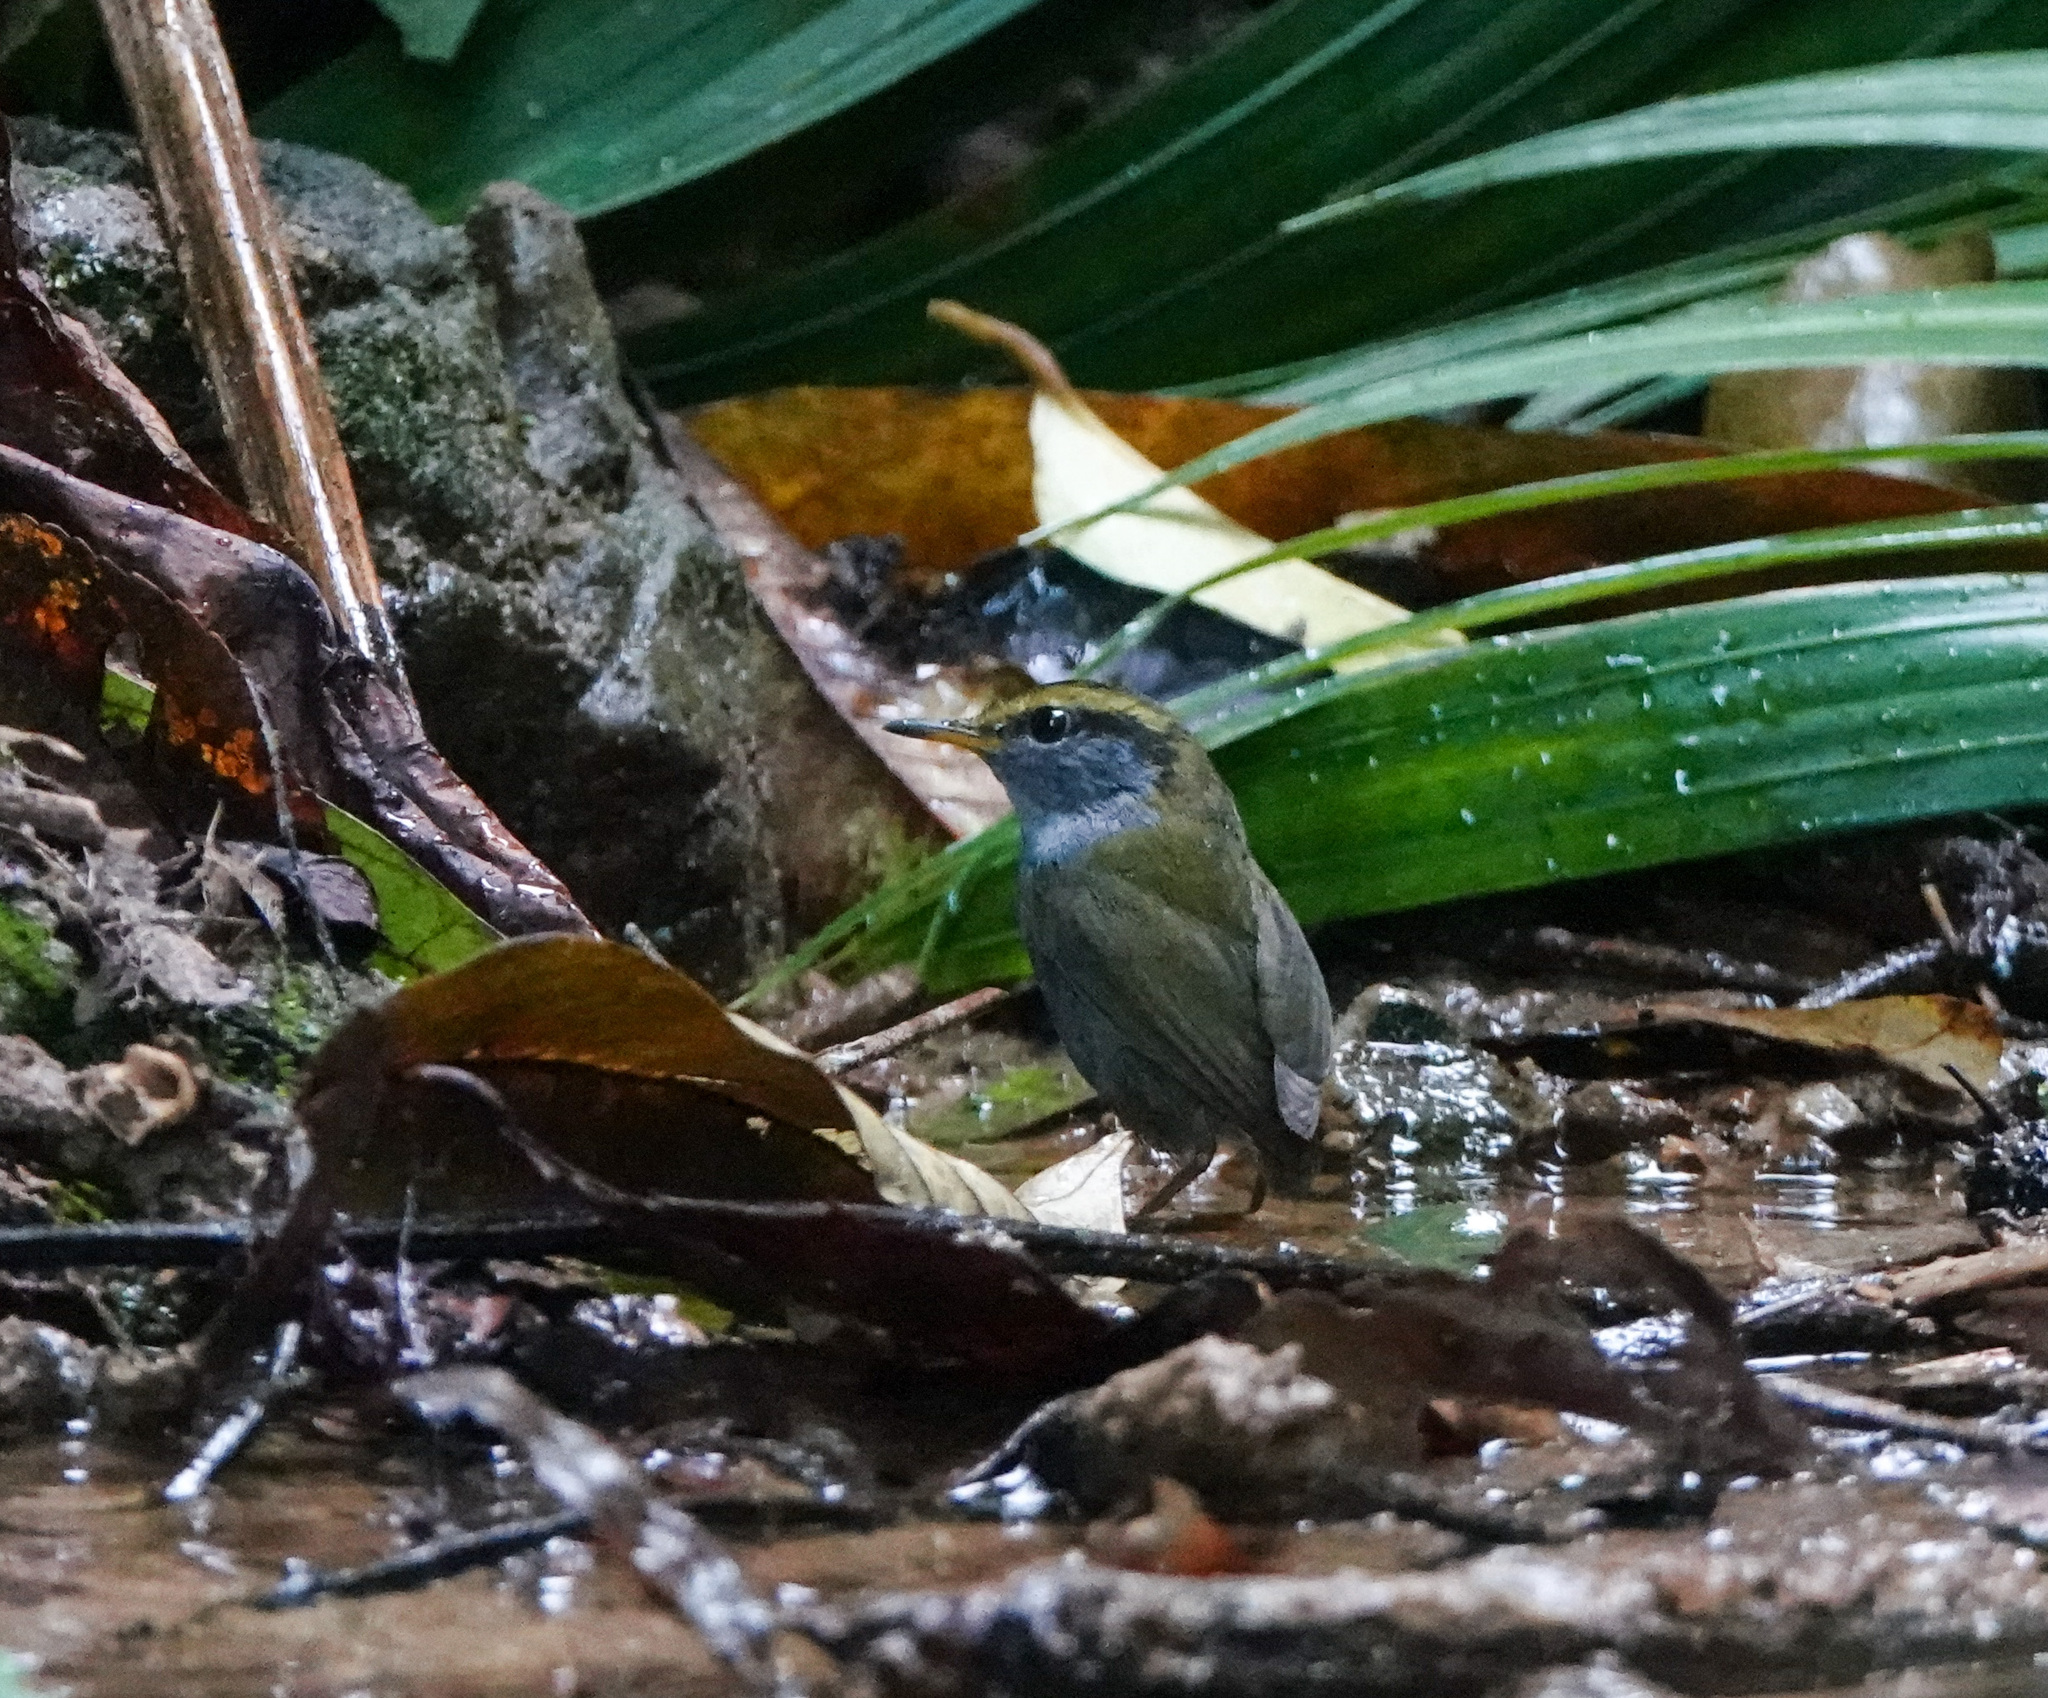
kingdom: Animalia
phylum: Chordata
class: Aves
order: Passeriformes
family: Cettiidae
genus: Tesia
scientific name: Tesia cyaniventer
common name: Grey-bellied tesia
